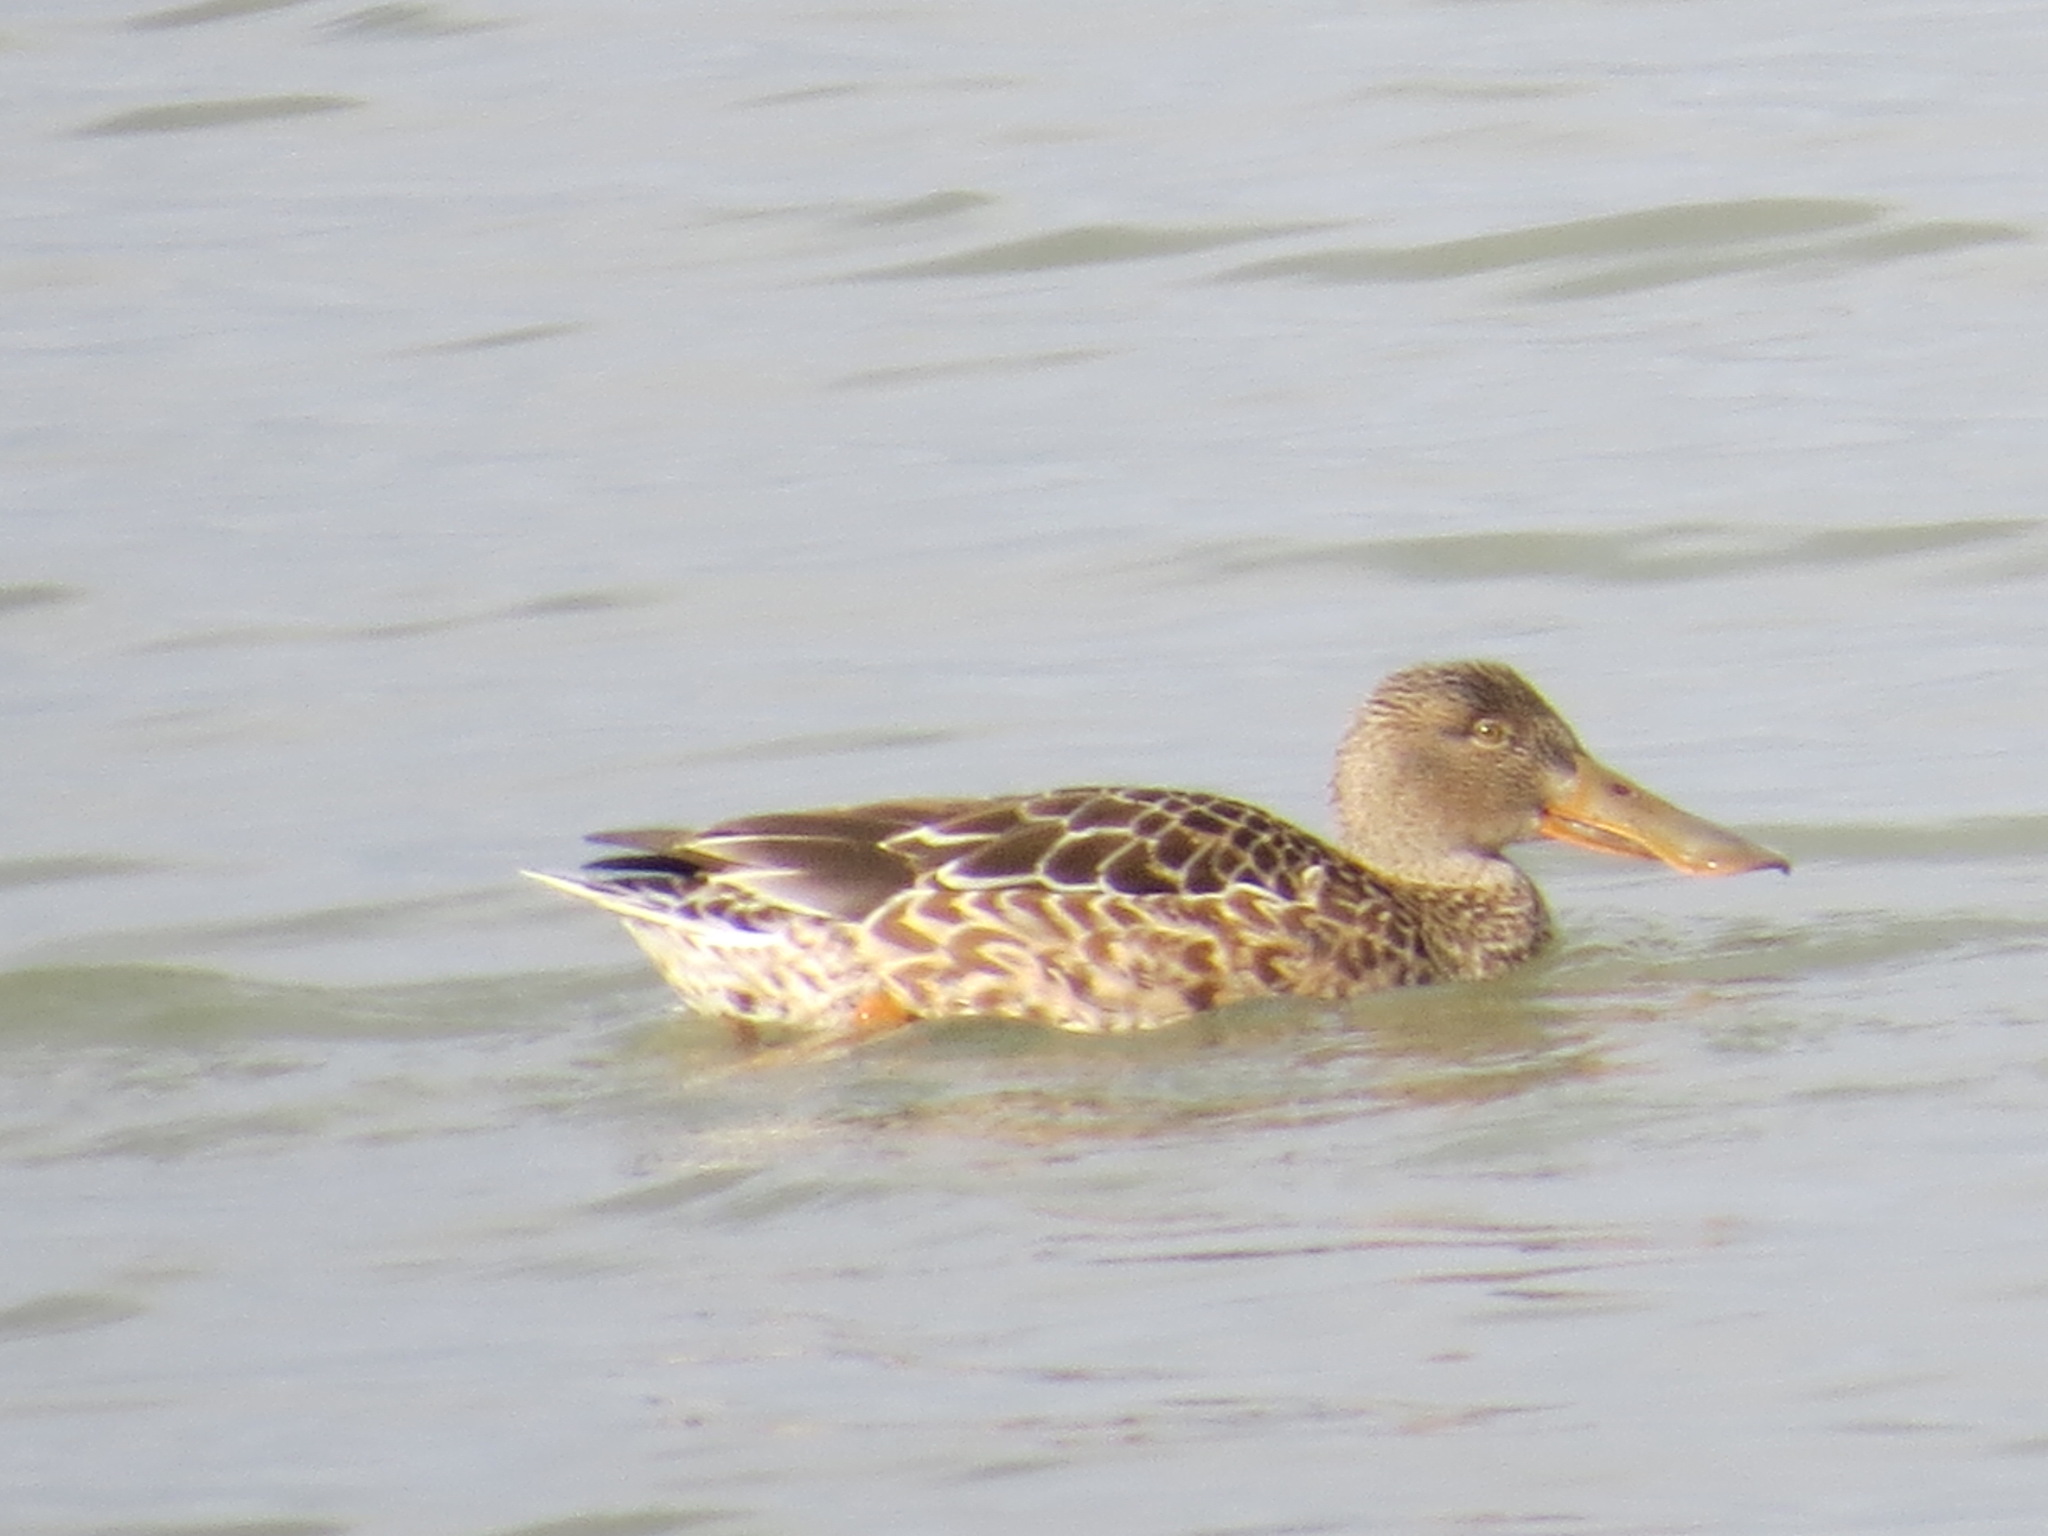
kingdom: Animalia
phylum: Chordata
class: Aves
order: Anseriformes
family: Anatidae
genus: Spatula
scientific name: Spatula clypeata
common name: Northern shoveler
